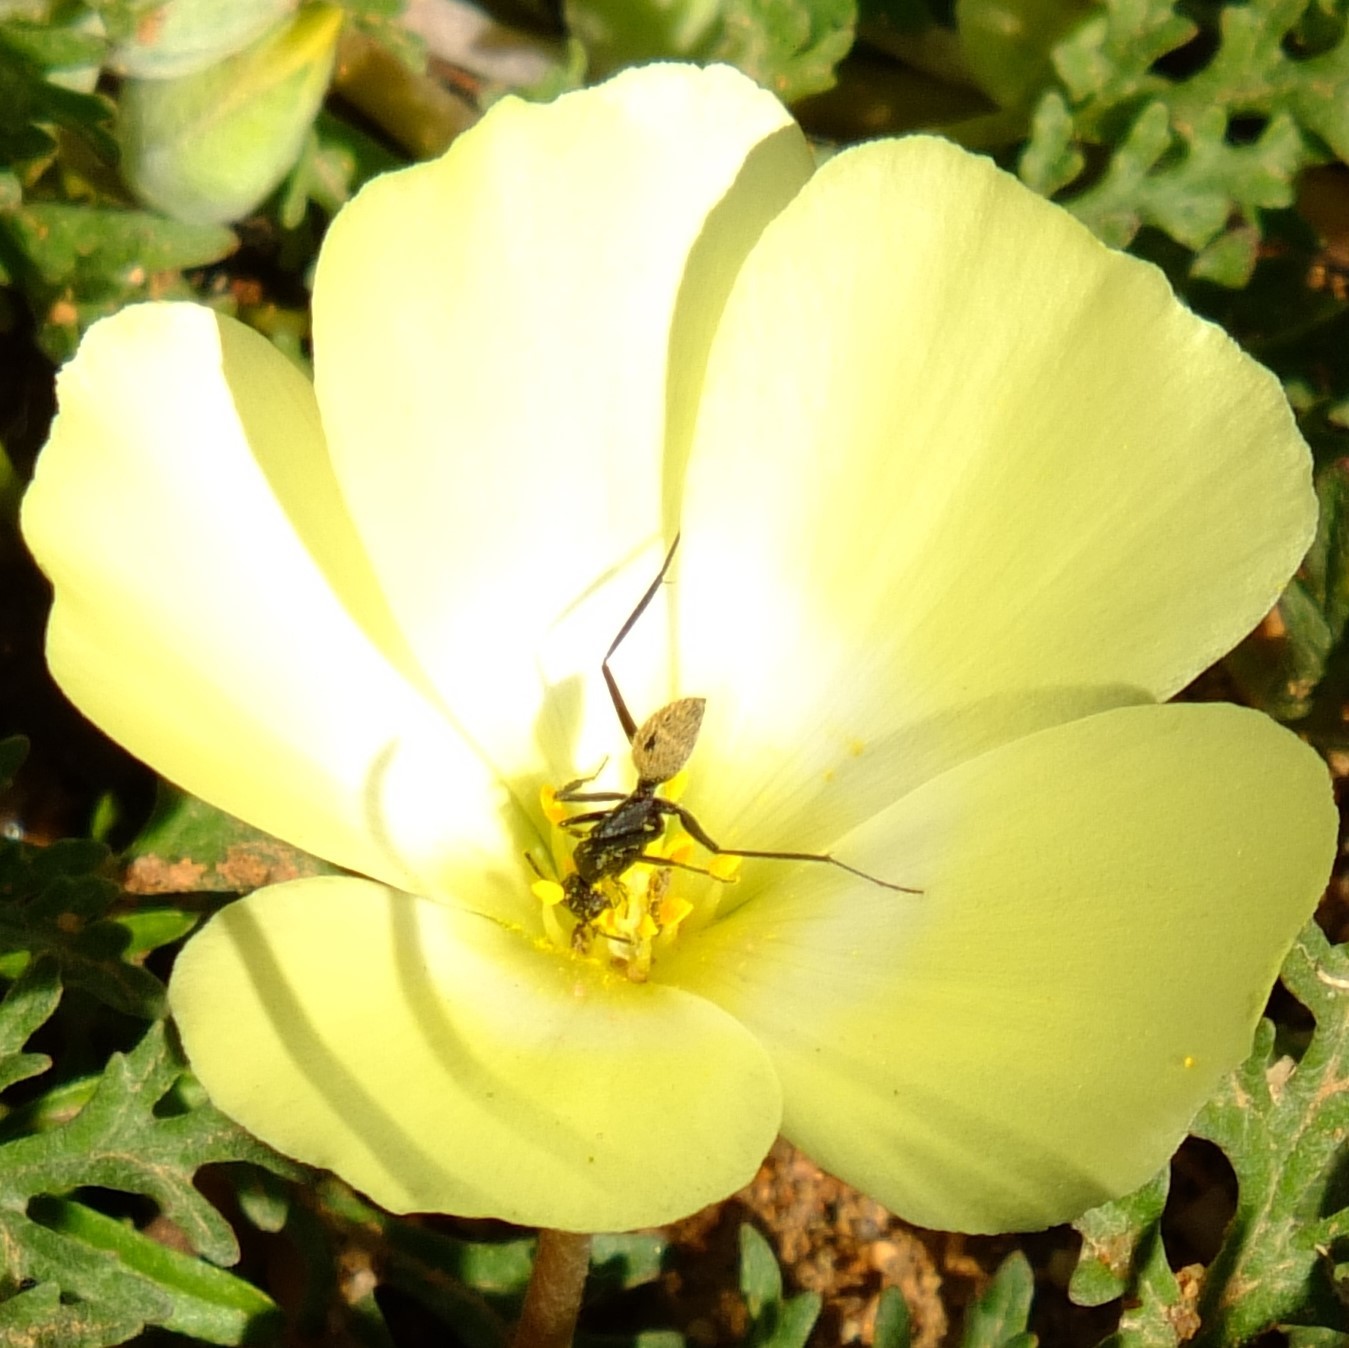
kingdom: Animalia
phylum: Arthropoda
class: Insecta
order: Hymenoptera
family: Formicidae
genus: Camponotus
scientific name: Camponotus fulvopilosus
